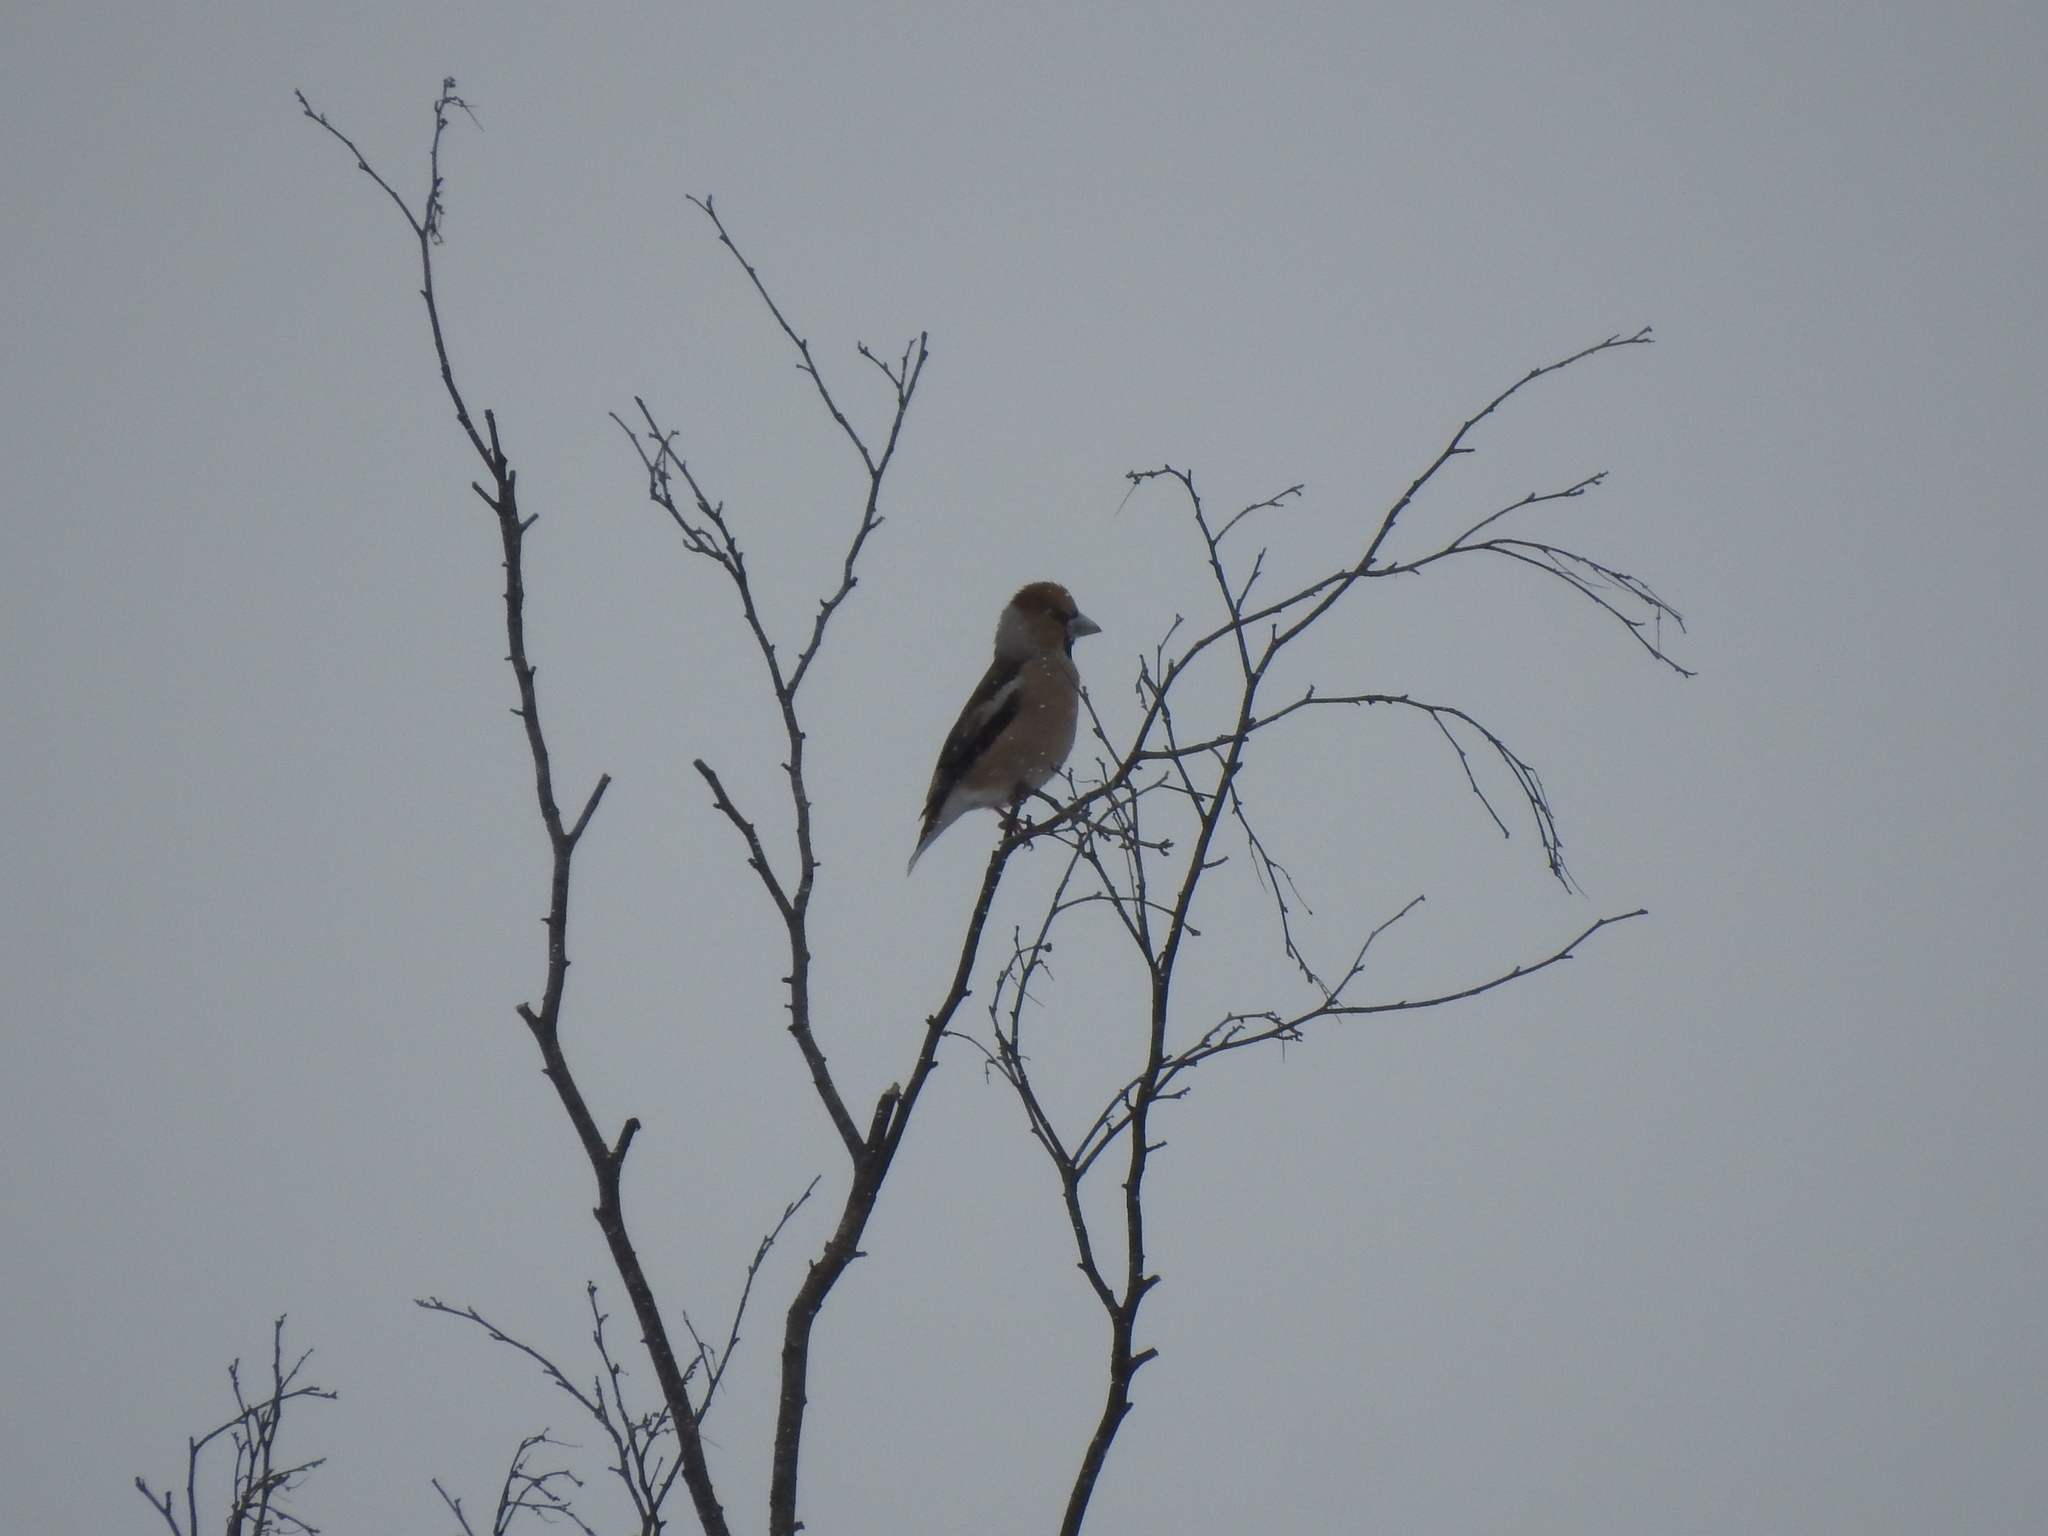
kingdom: Animalia
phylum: Chordata
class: Aves
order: Passeriformes
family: Fringillidae
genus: Coccothraustes
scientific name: Coccothraustes coccothraustes
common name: Hawfinch
